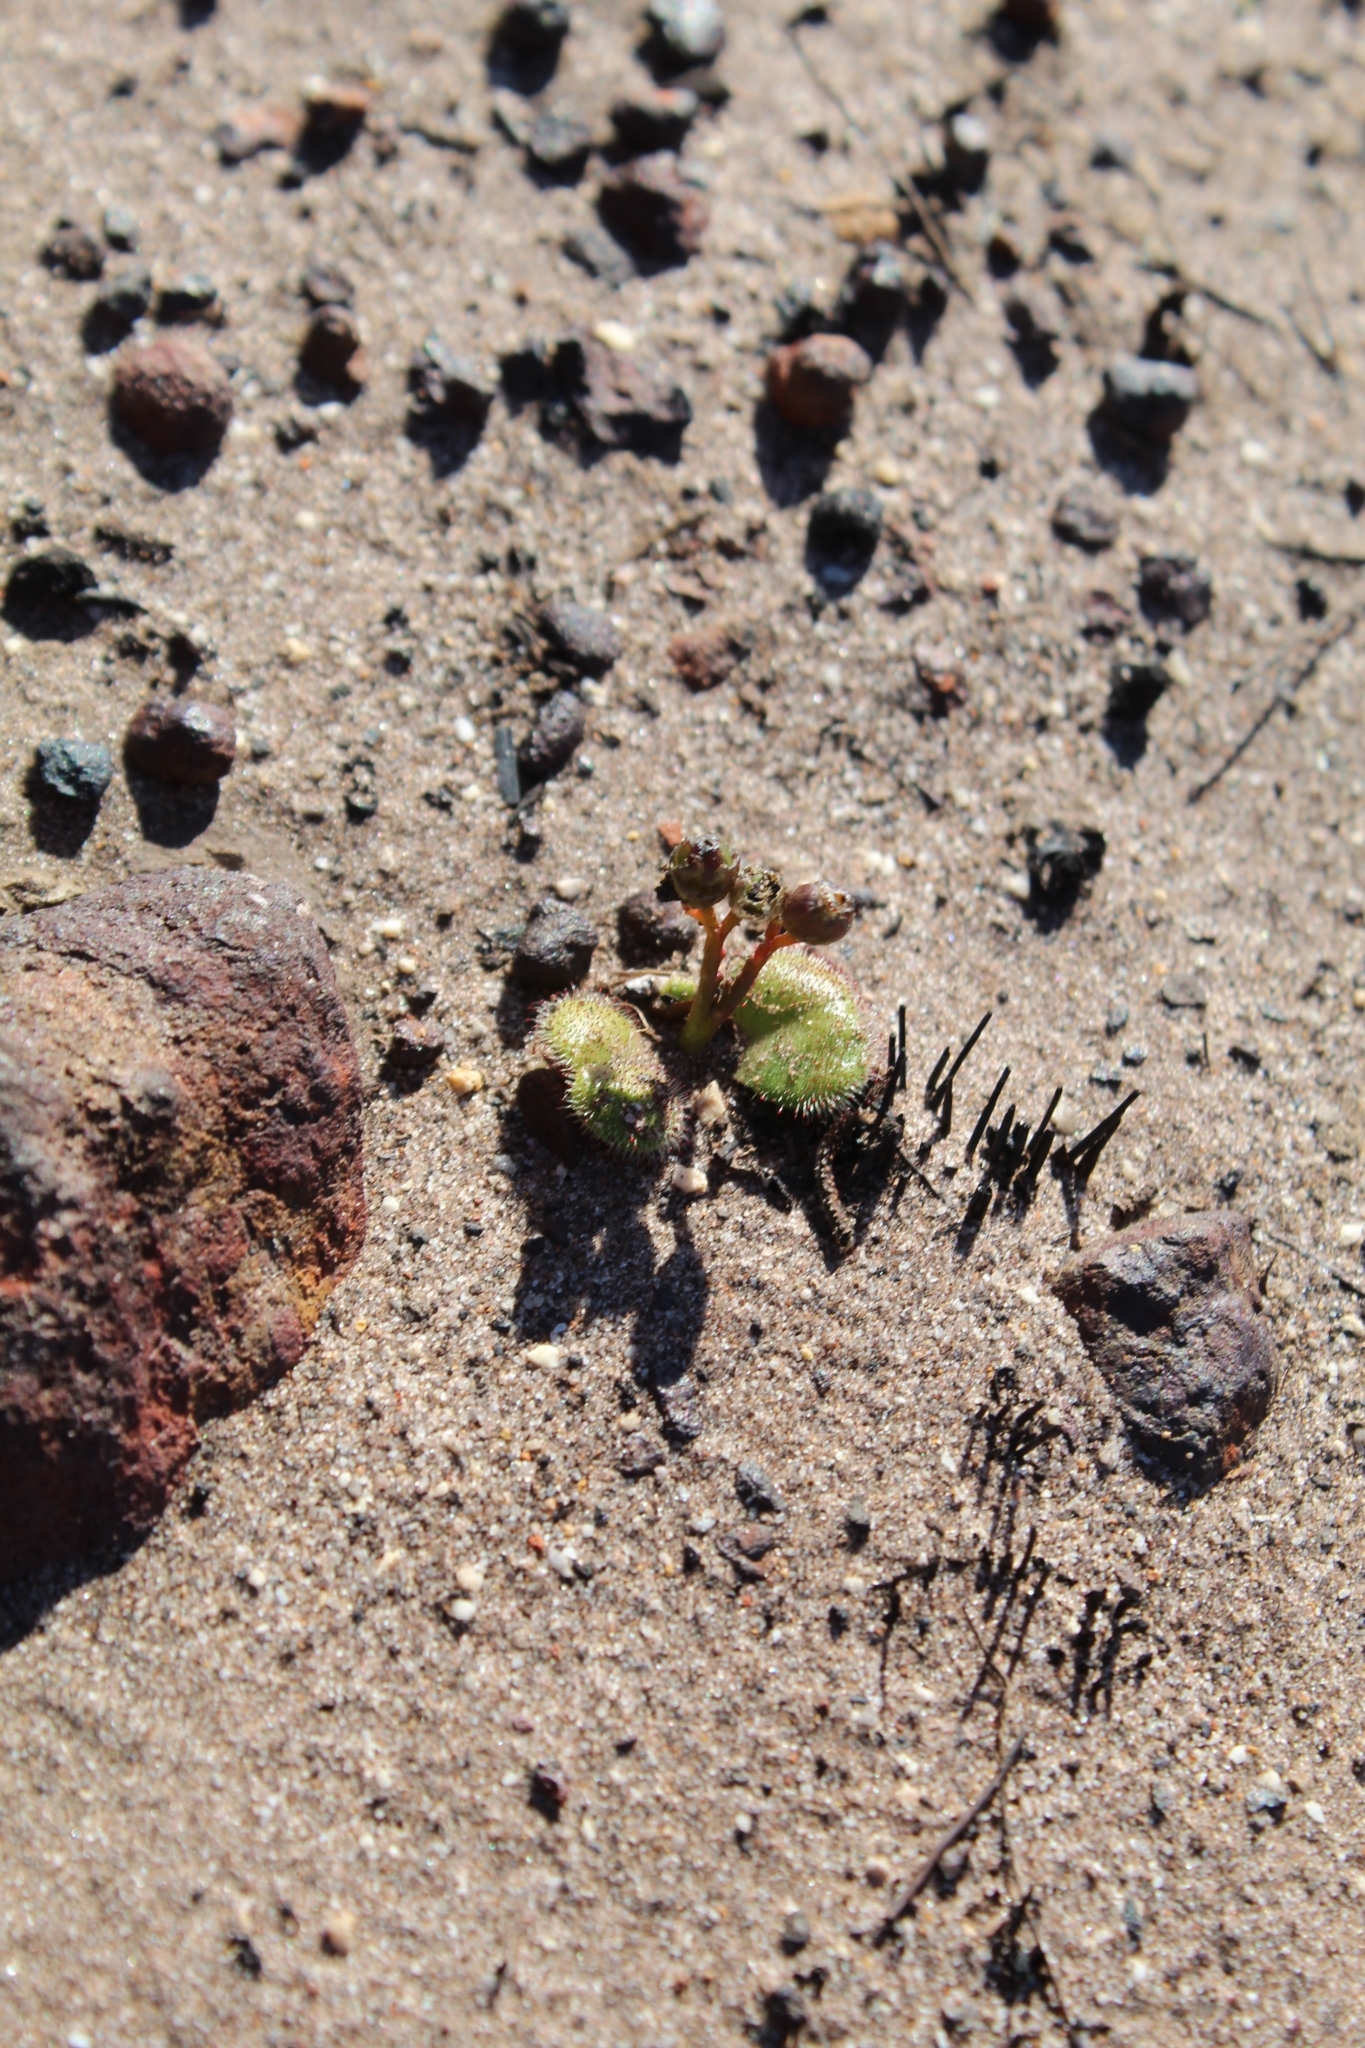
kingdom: Plantae
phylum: Tracheophyta
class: Magnoliopsida
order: Caryophyllales
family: Droseraceae
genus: Drosera
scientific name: Drosera erythrorhiza
